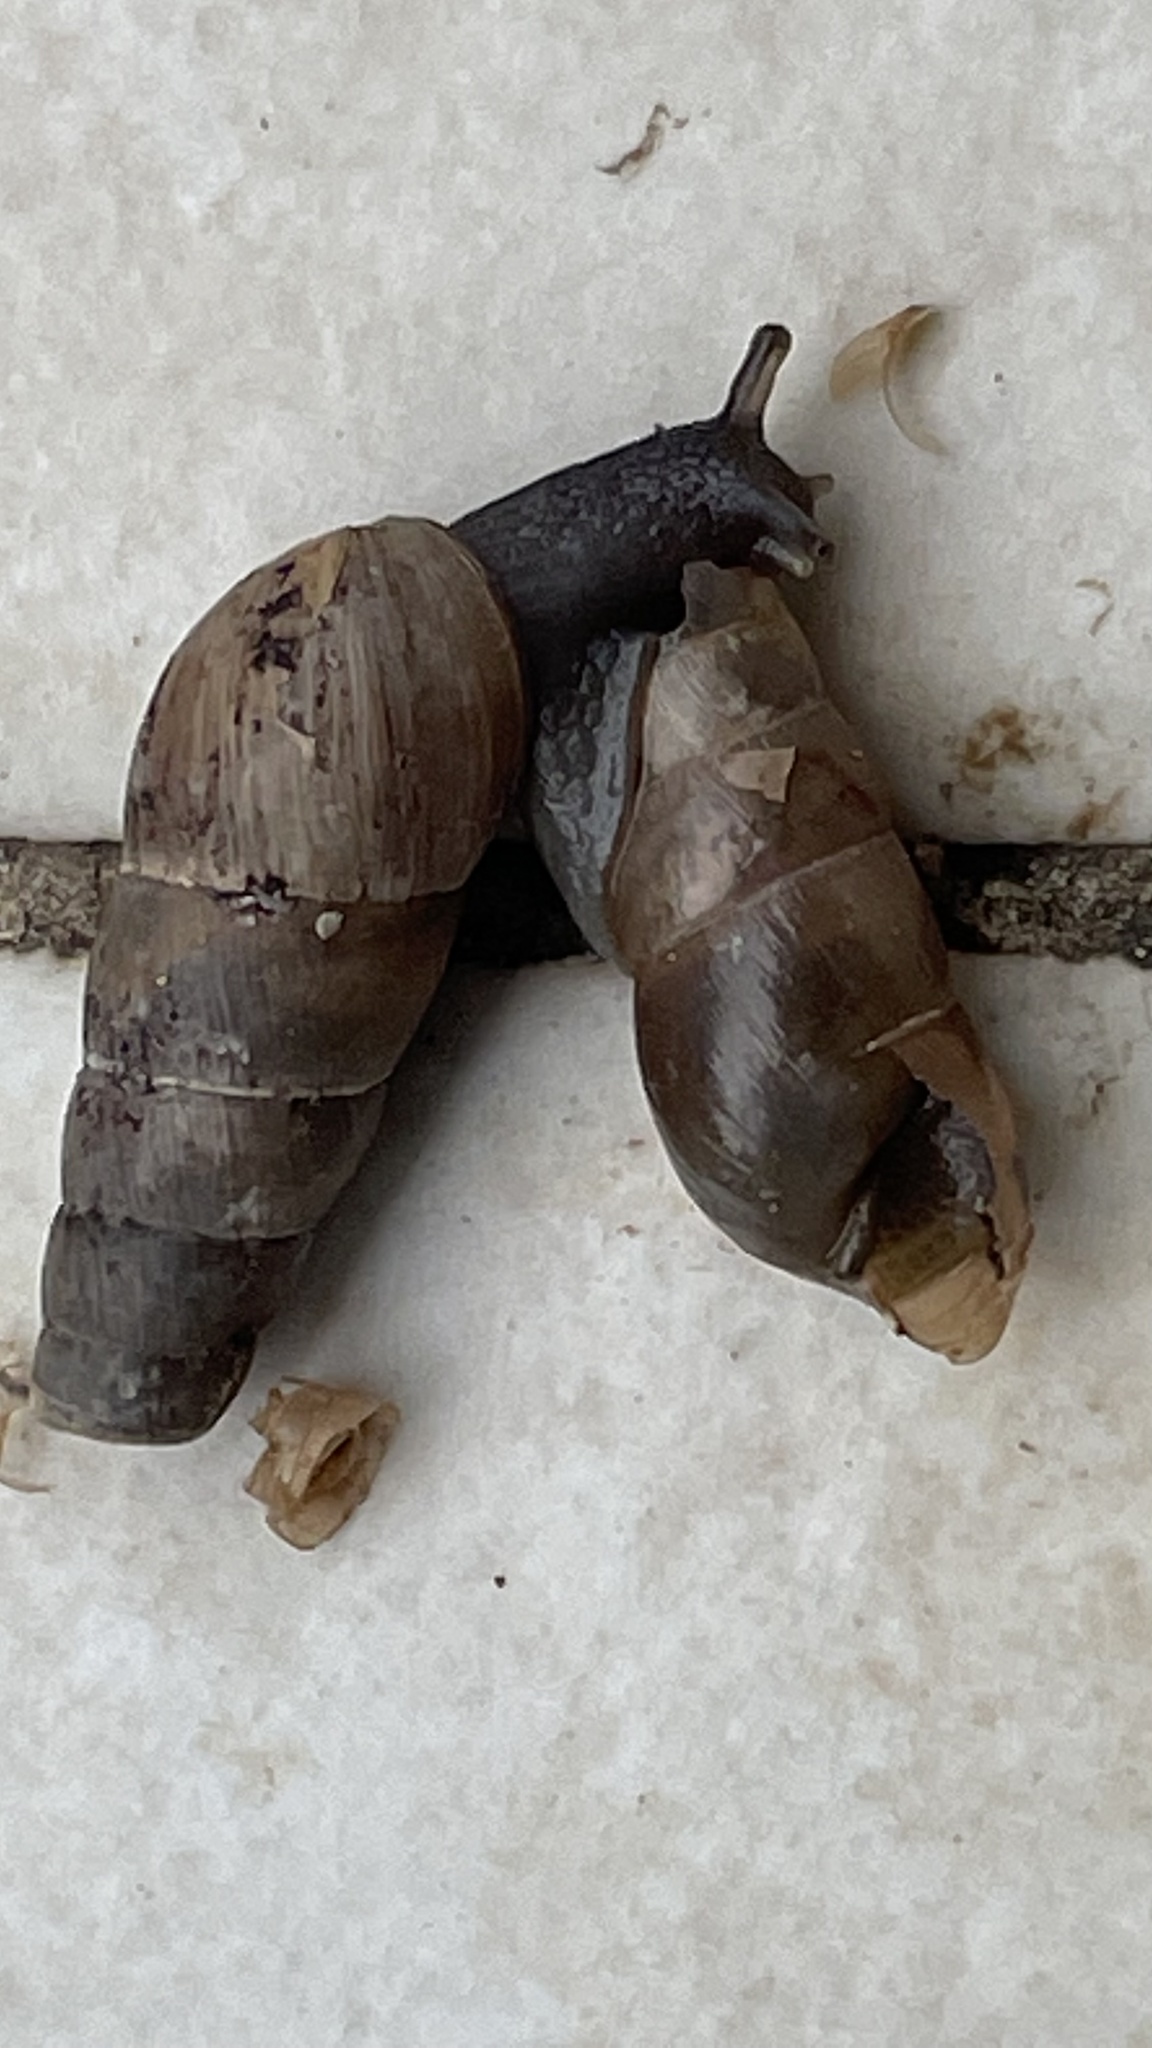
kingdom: Animalia
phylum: Mollusca
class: Gastropoda
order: Stylommatophora
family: Achatinidae
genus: Rumina
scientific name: Rumina decollata
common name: Decollate snail
